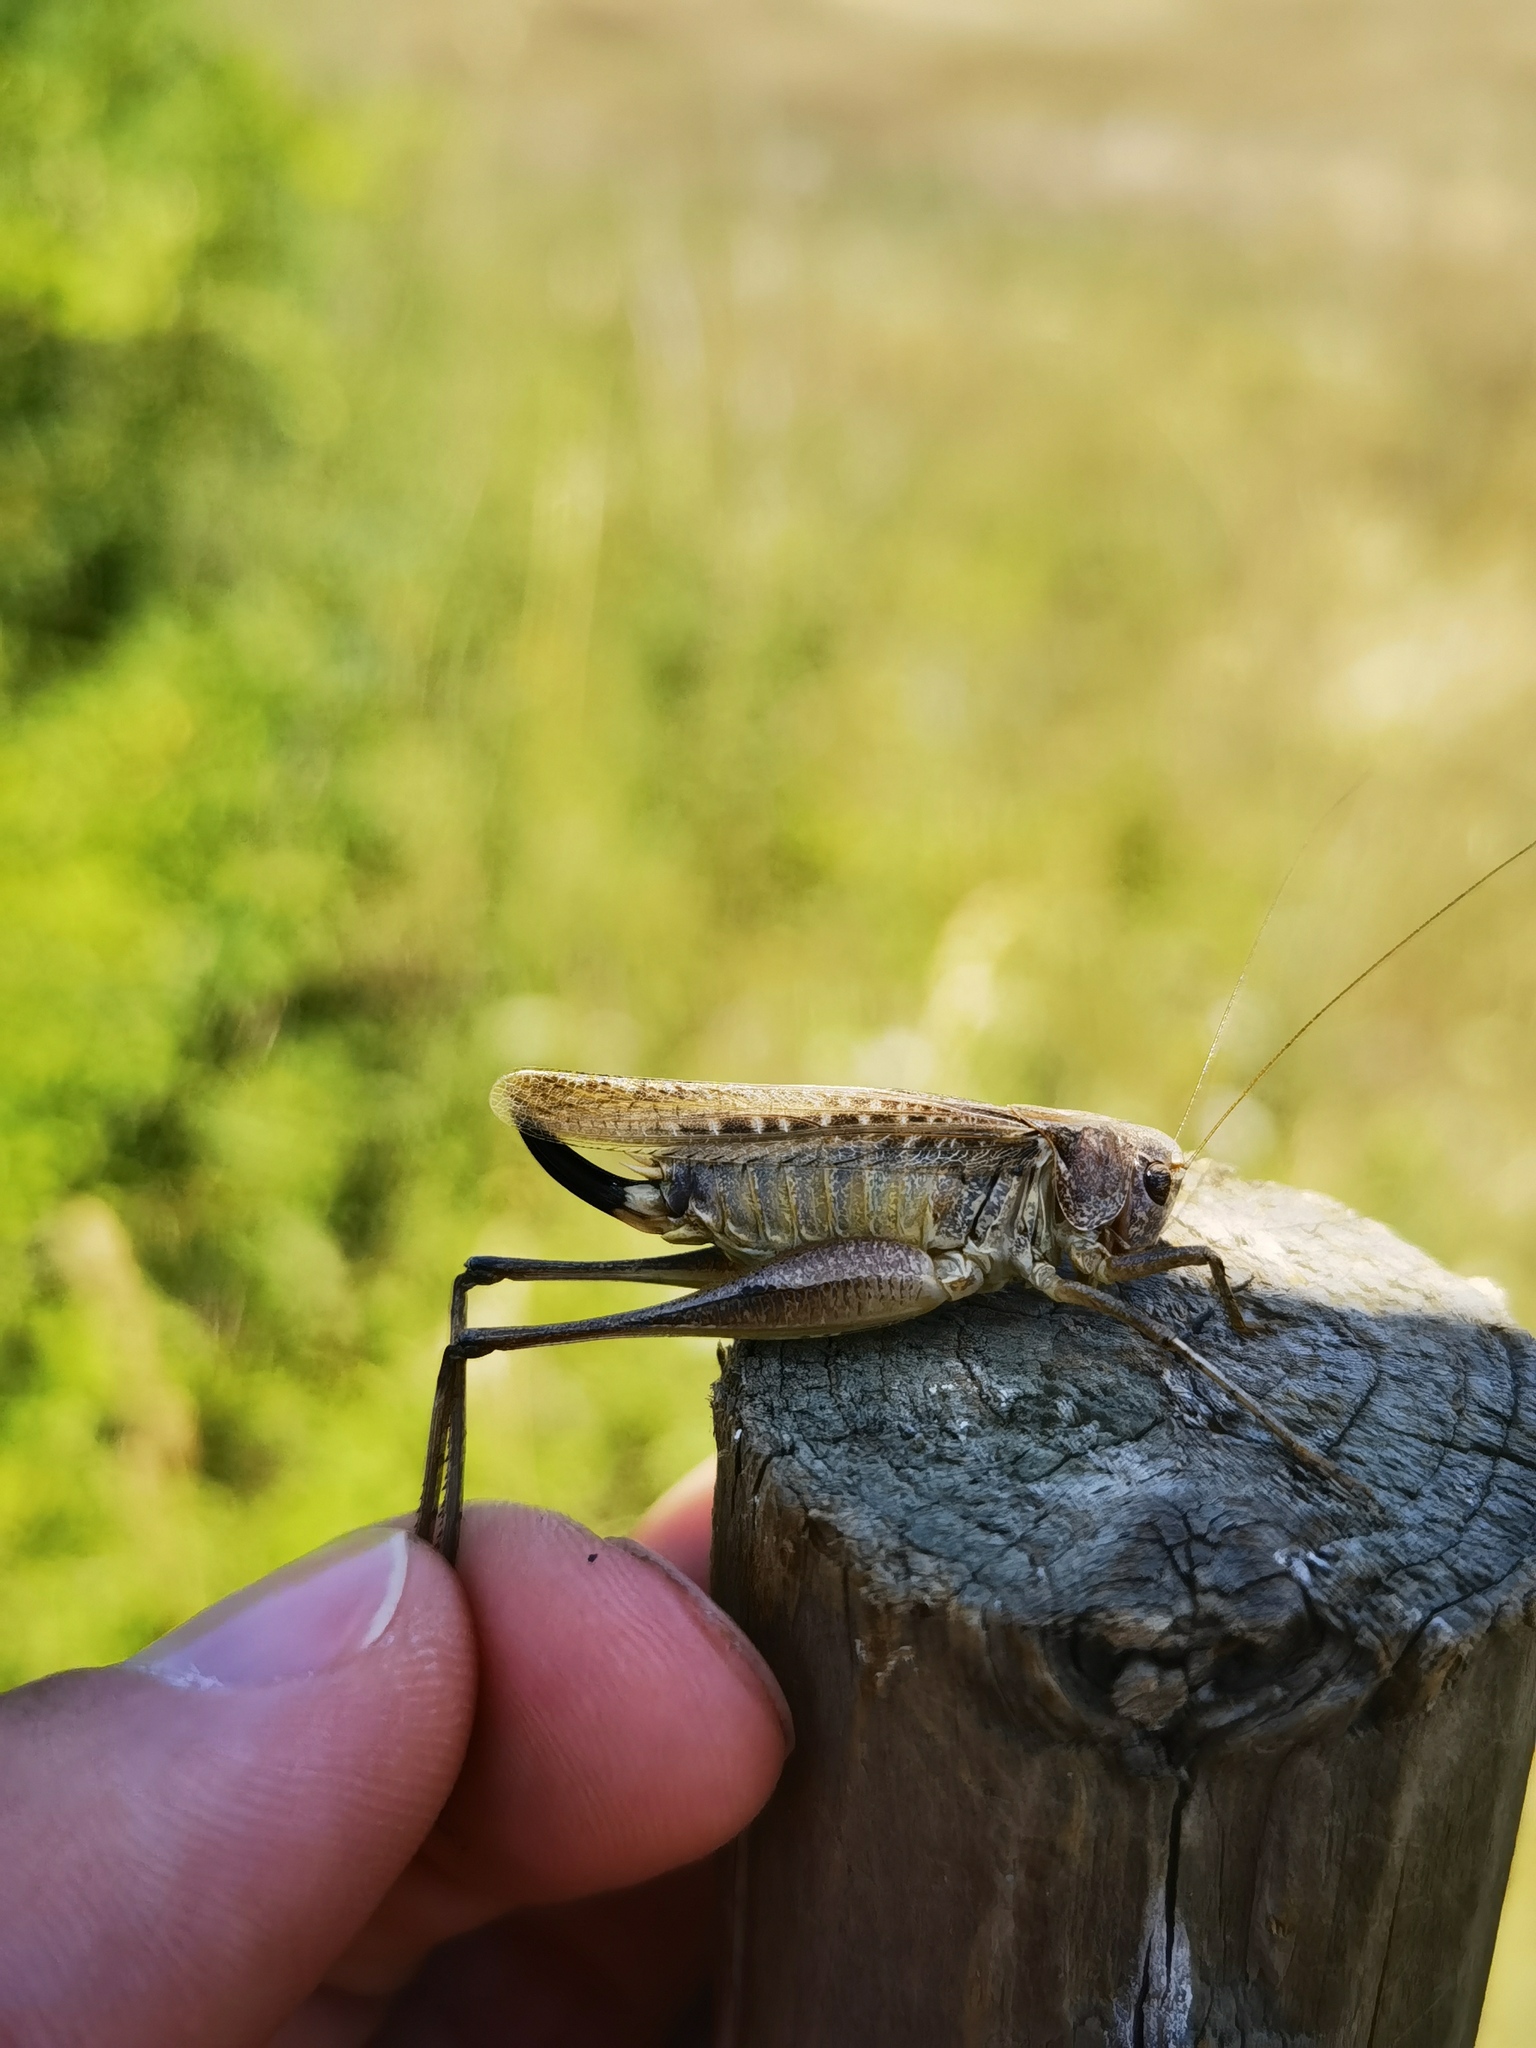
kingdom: Animalia
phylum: Arthropoda
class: Insecta
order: Orthoptera
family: Tettigoniidae
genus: Platycleis
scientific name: Platycleis albopunctata
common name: Grey bush-cricket
